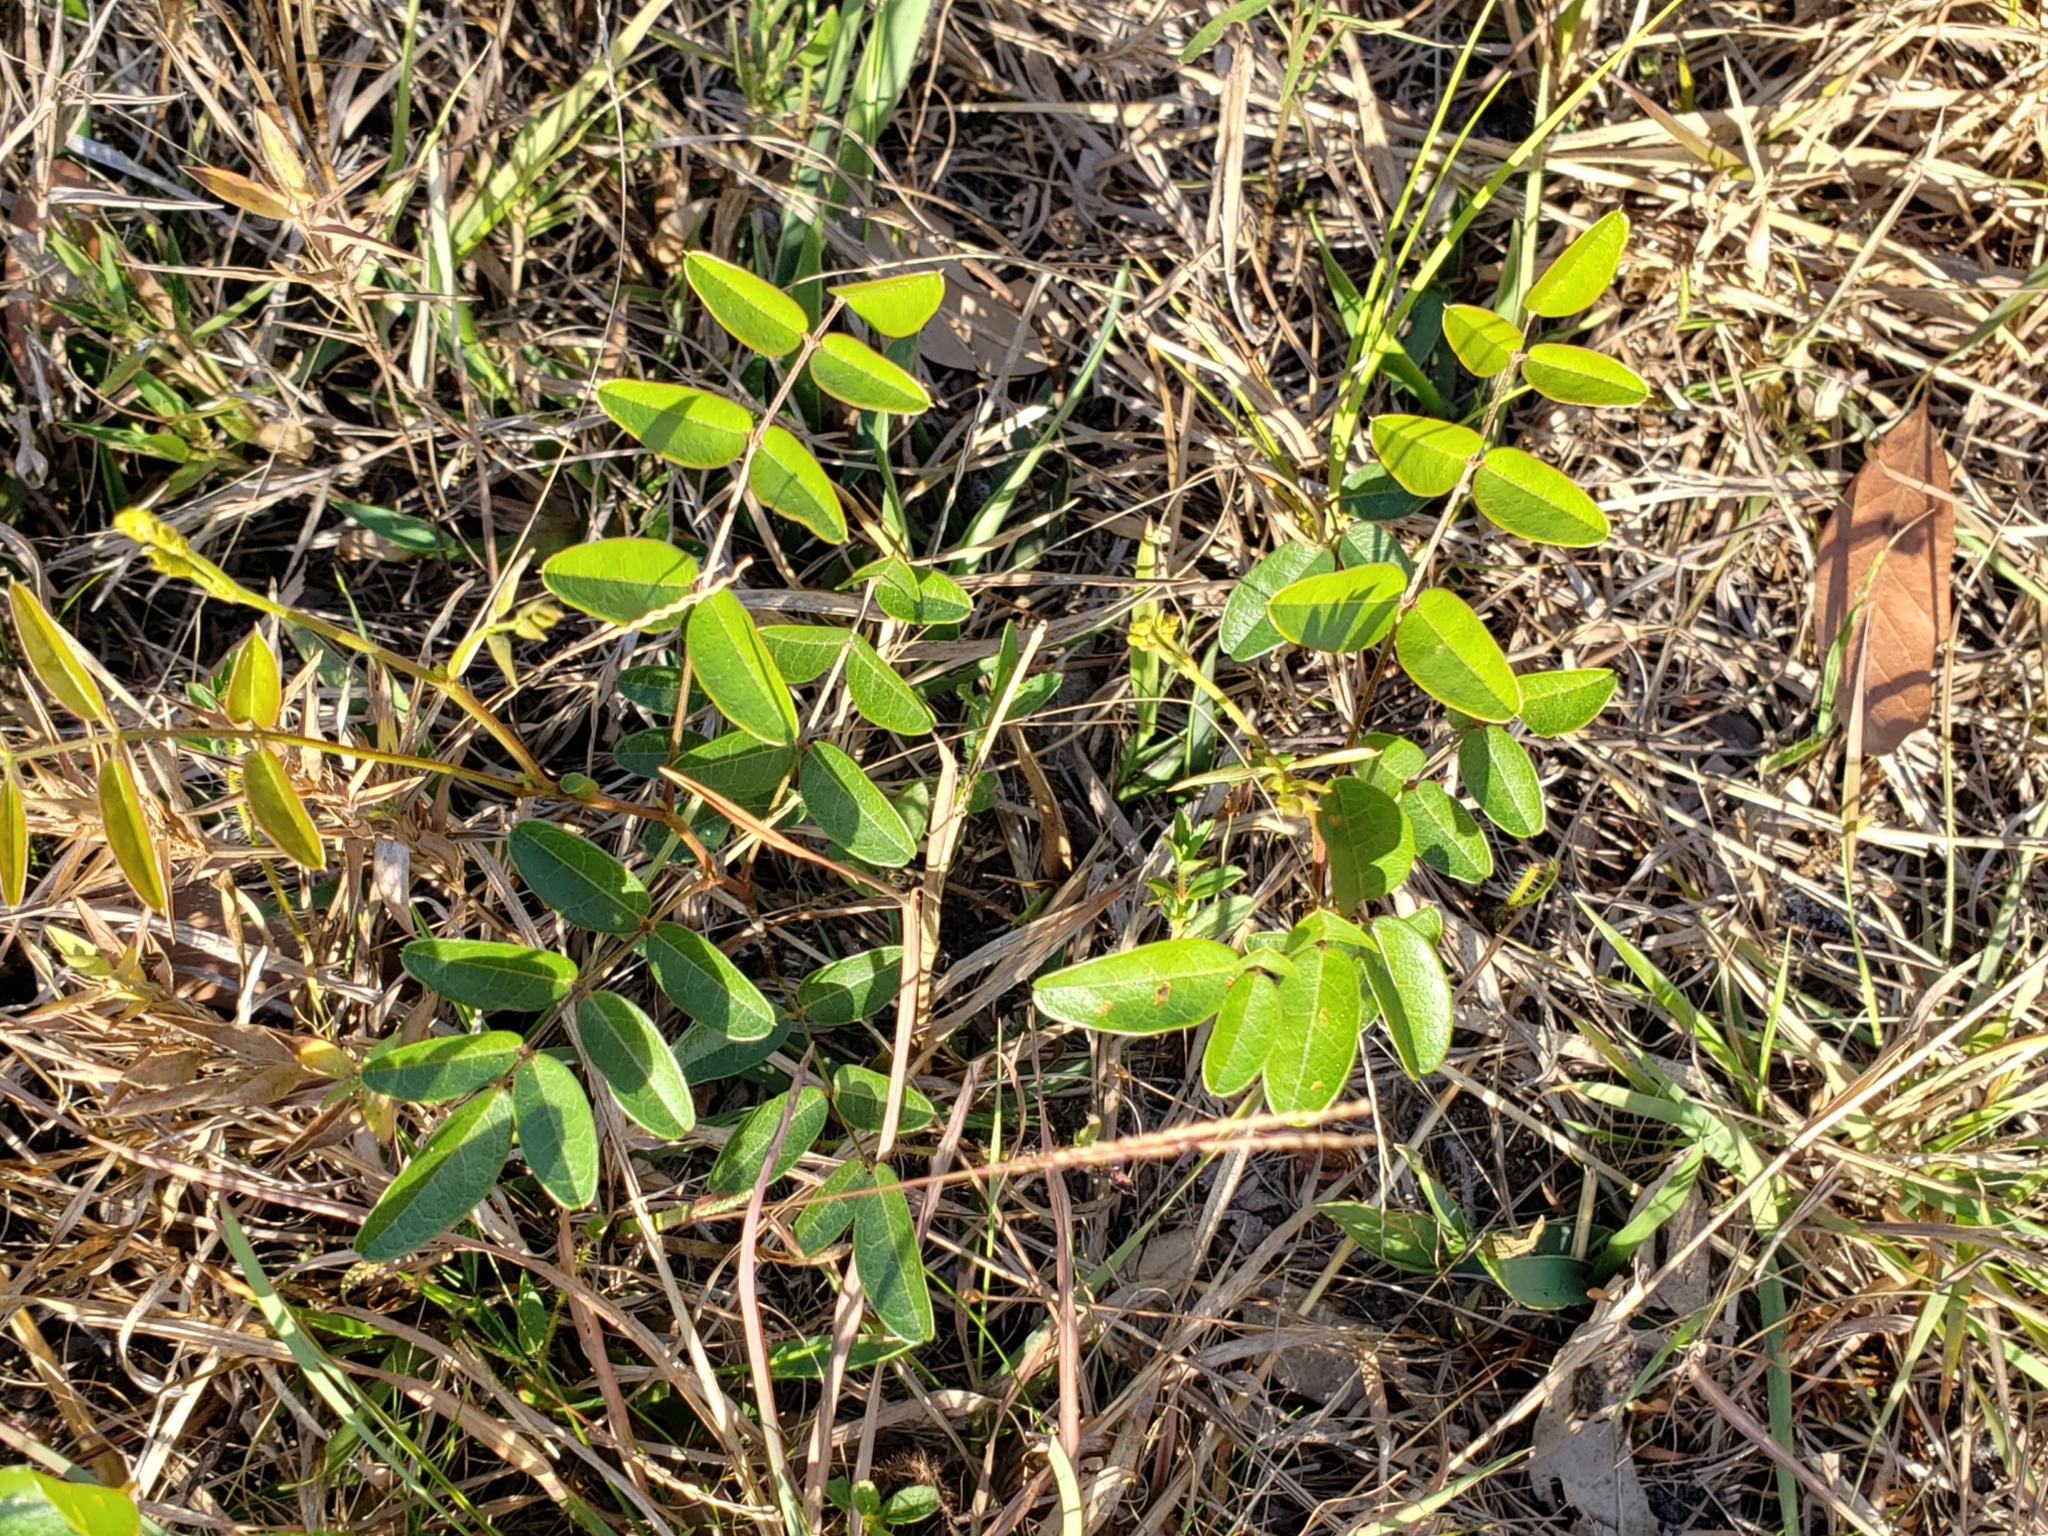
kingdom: Plantae
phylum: Tracheophyta
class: Magnoliopsida
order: Fabales
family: Fabaceae
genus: Galactia
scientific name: Galactia elliottii
